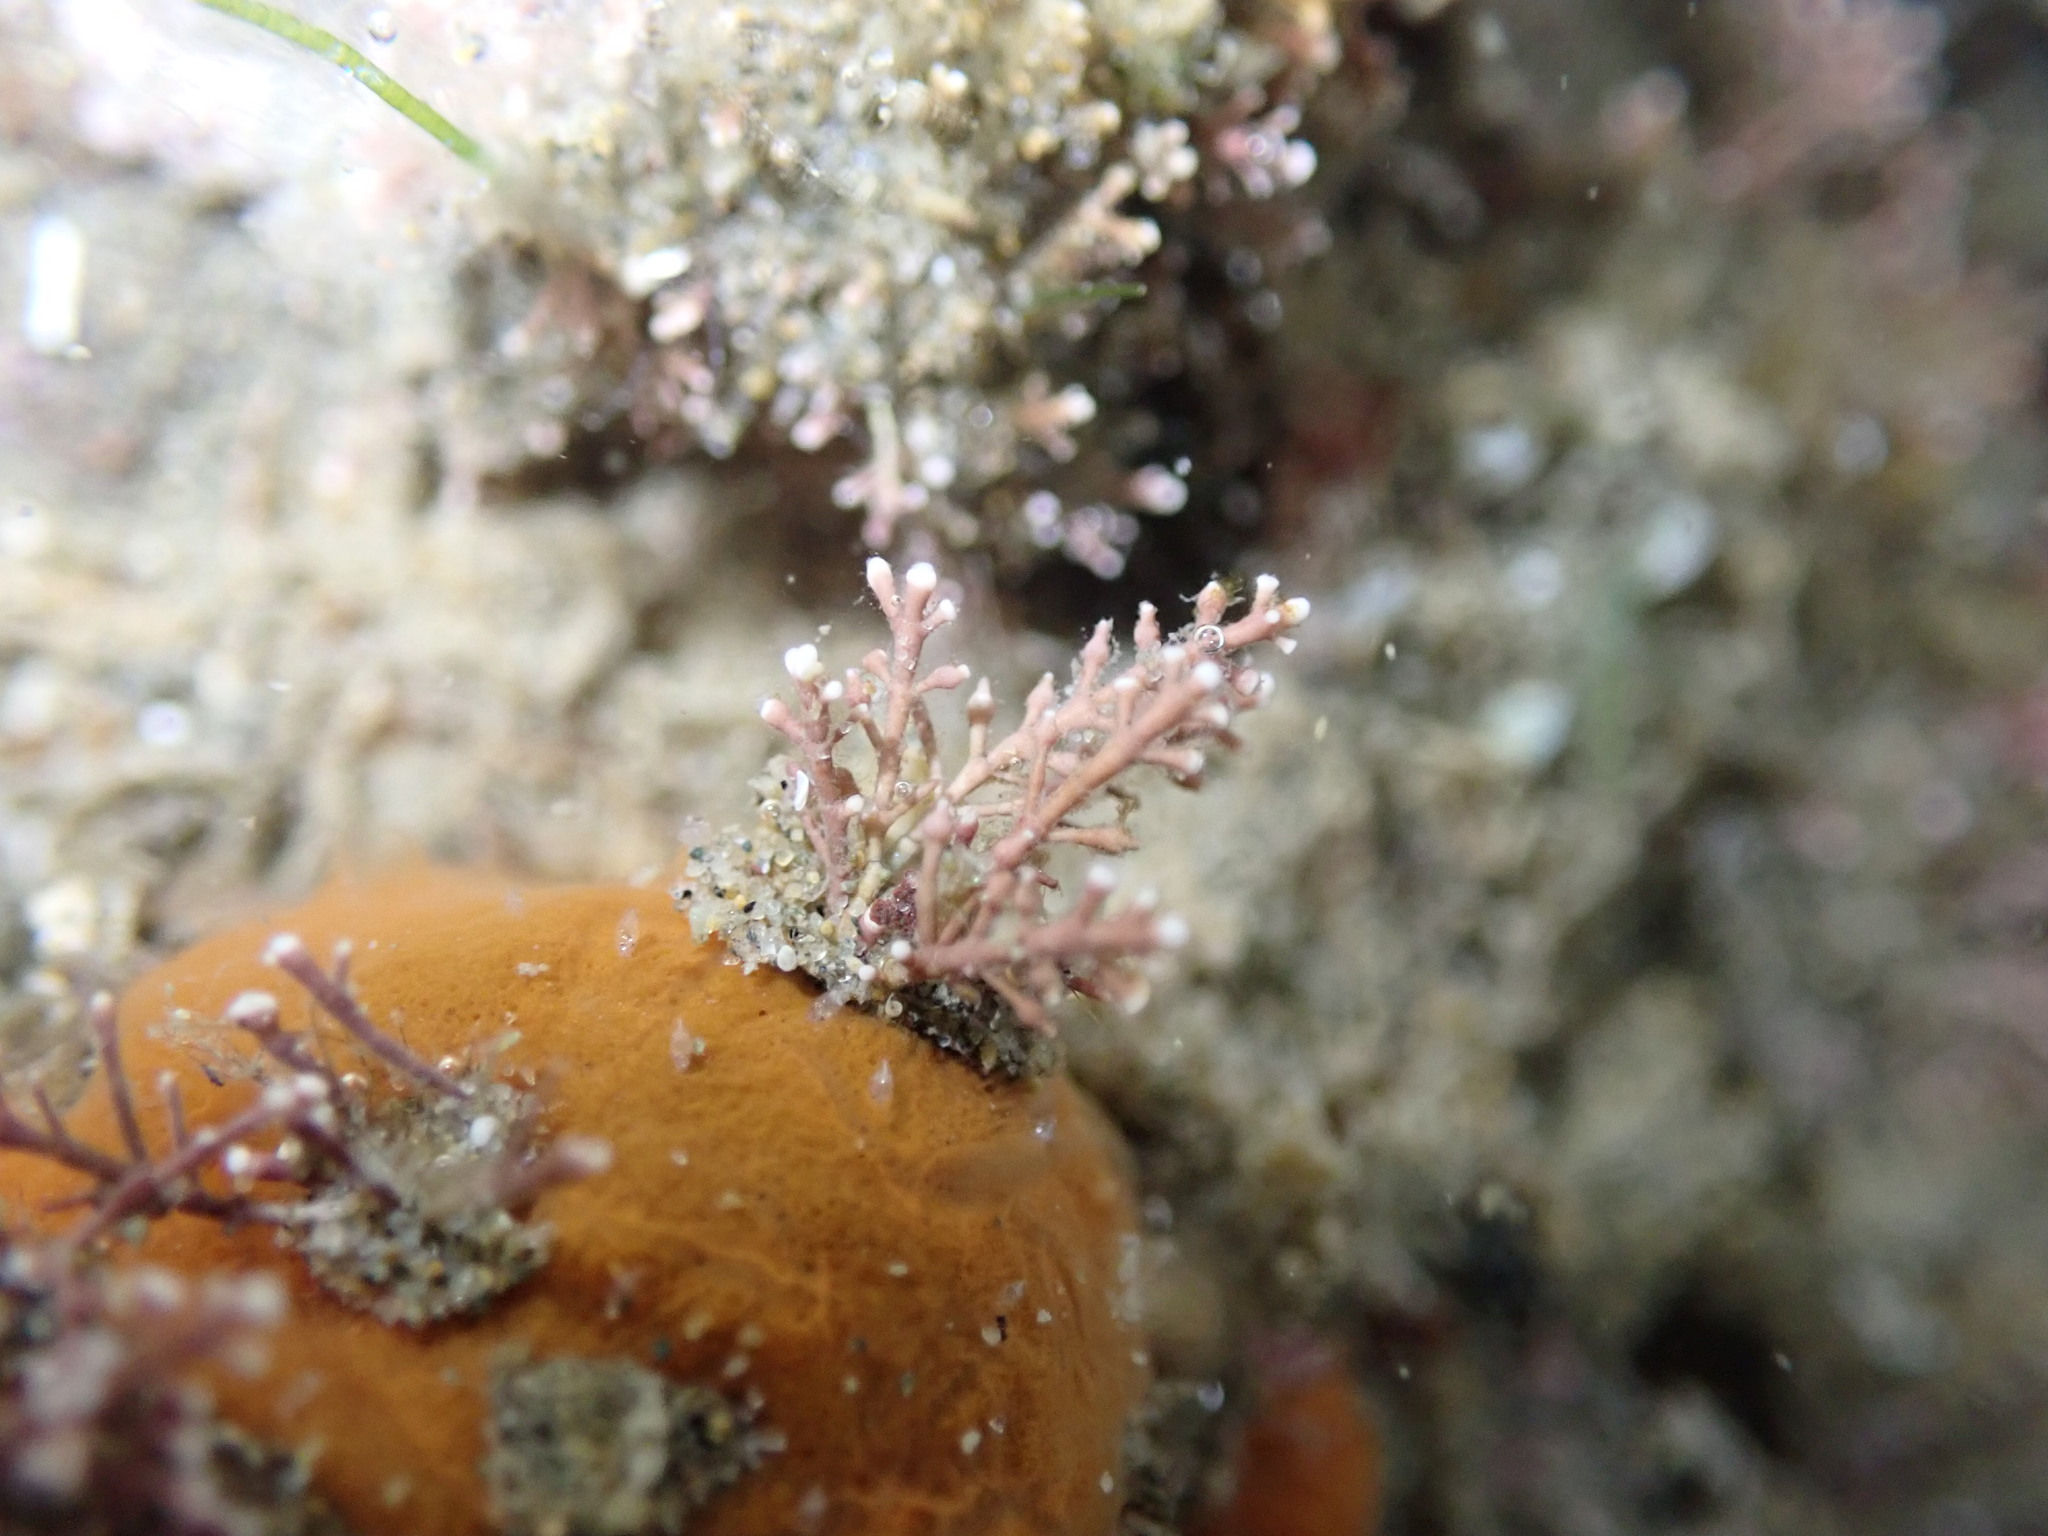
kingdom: Plantae
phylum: Rhodophyta
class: Florideophyceae
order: Corallinales
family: Corallinaceae
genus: Corallina
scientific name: Corallina officinalis
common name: Coral weed
